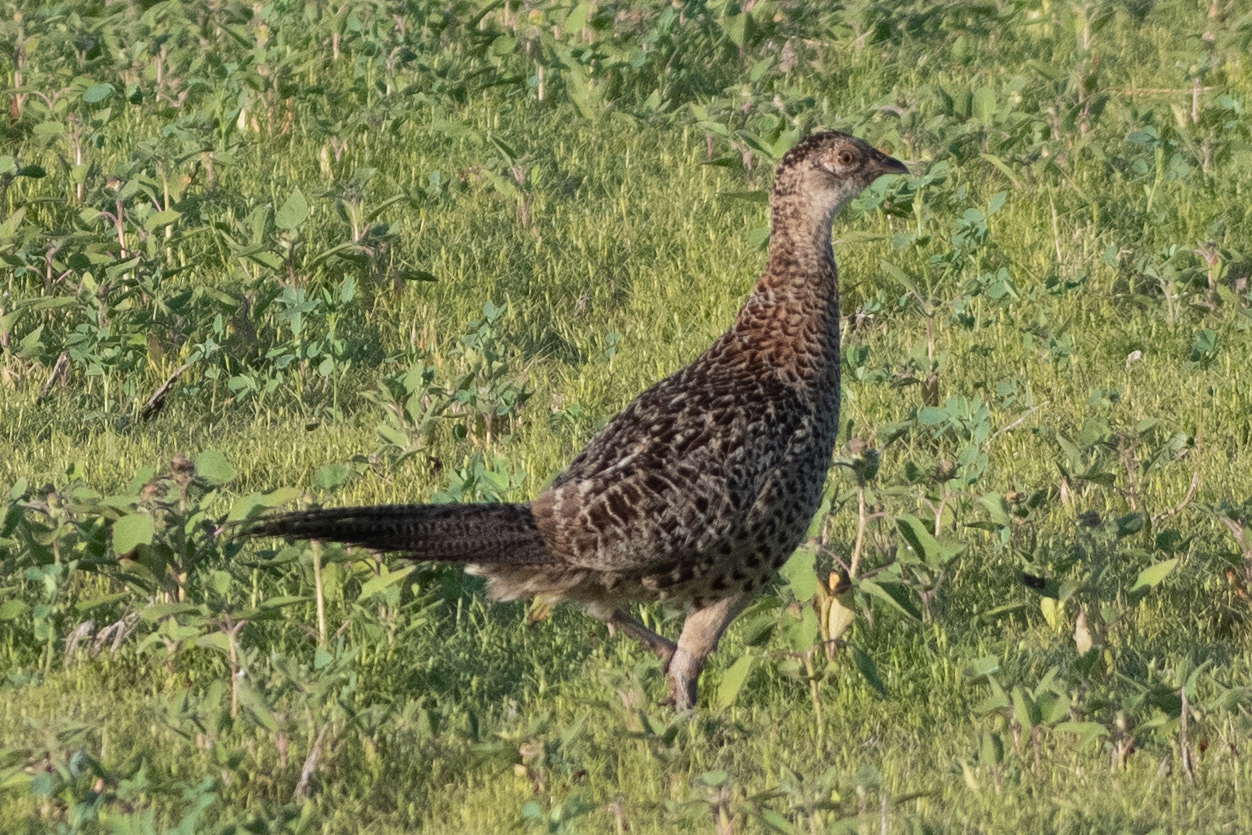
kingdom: Animalia
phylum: Chordata
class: Aves
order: Galliformes
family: Phasianidae
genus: Phasianus
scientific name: Phasianus colchicus
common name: Common pheasant
